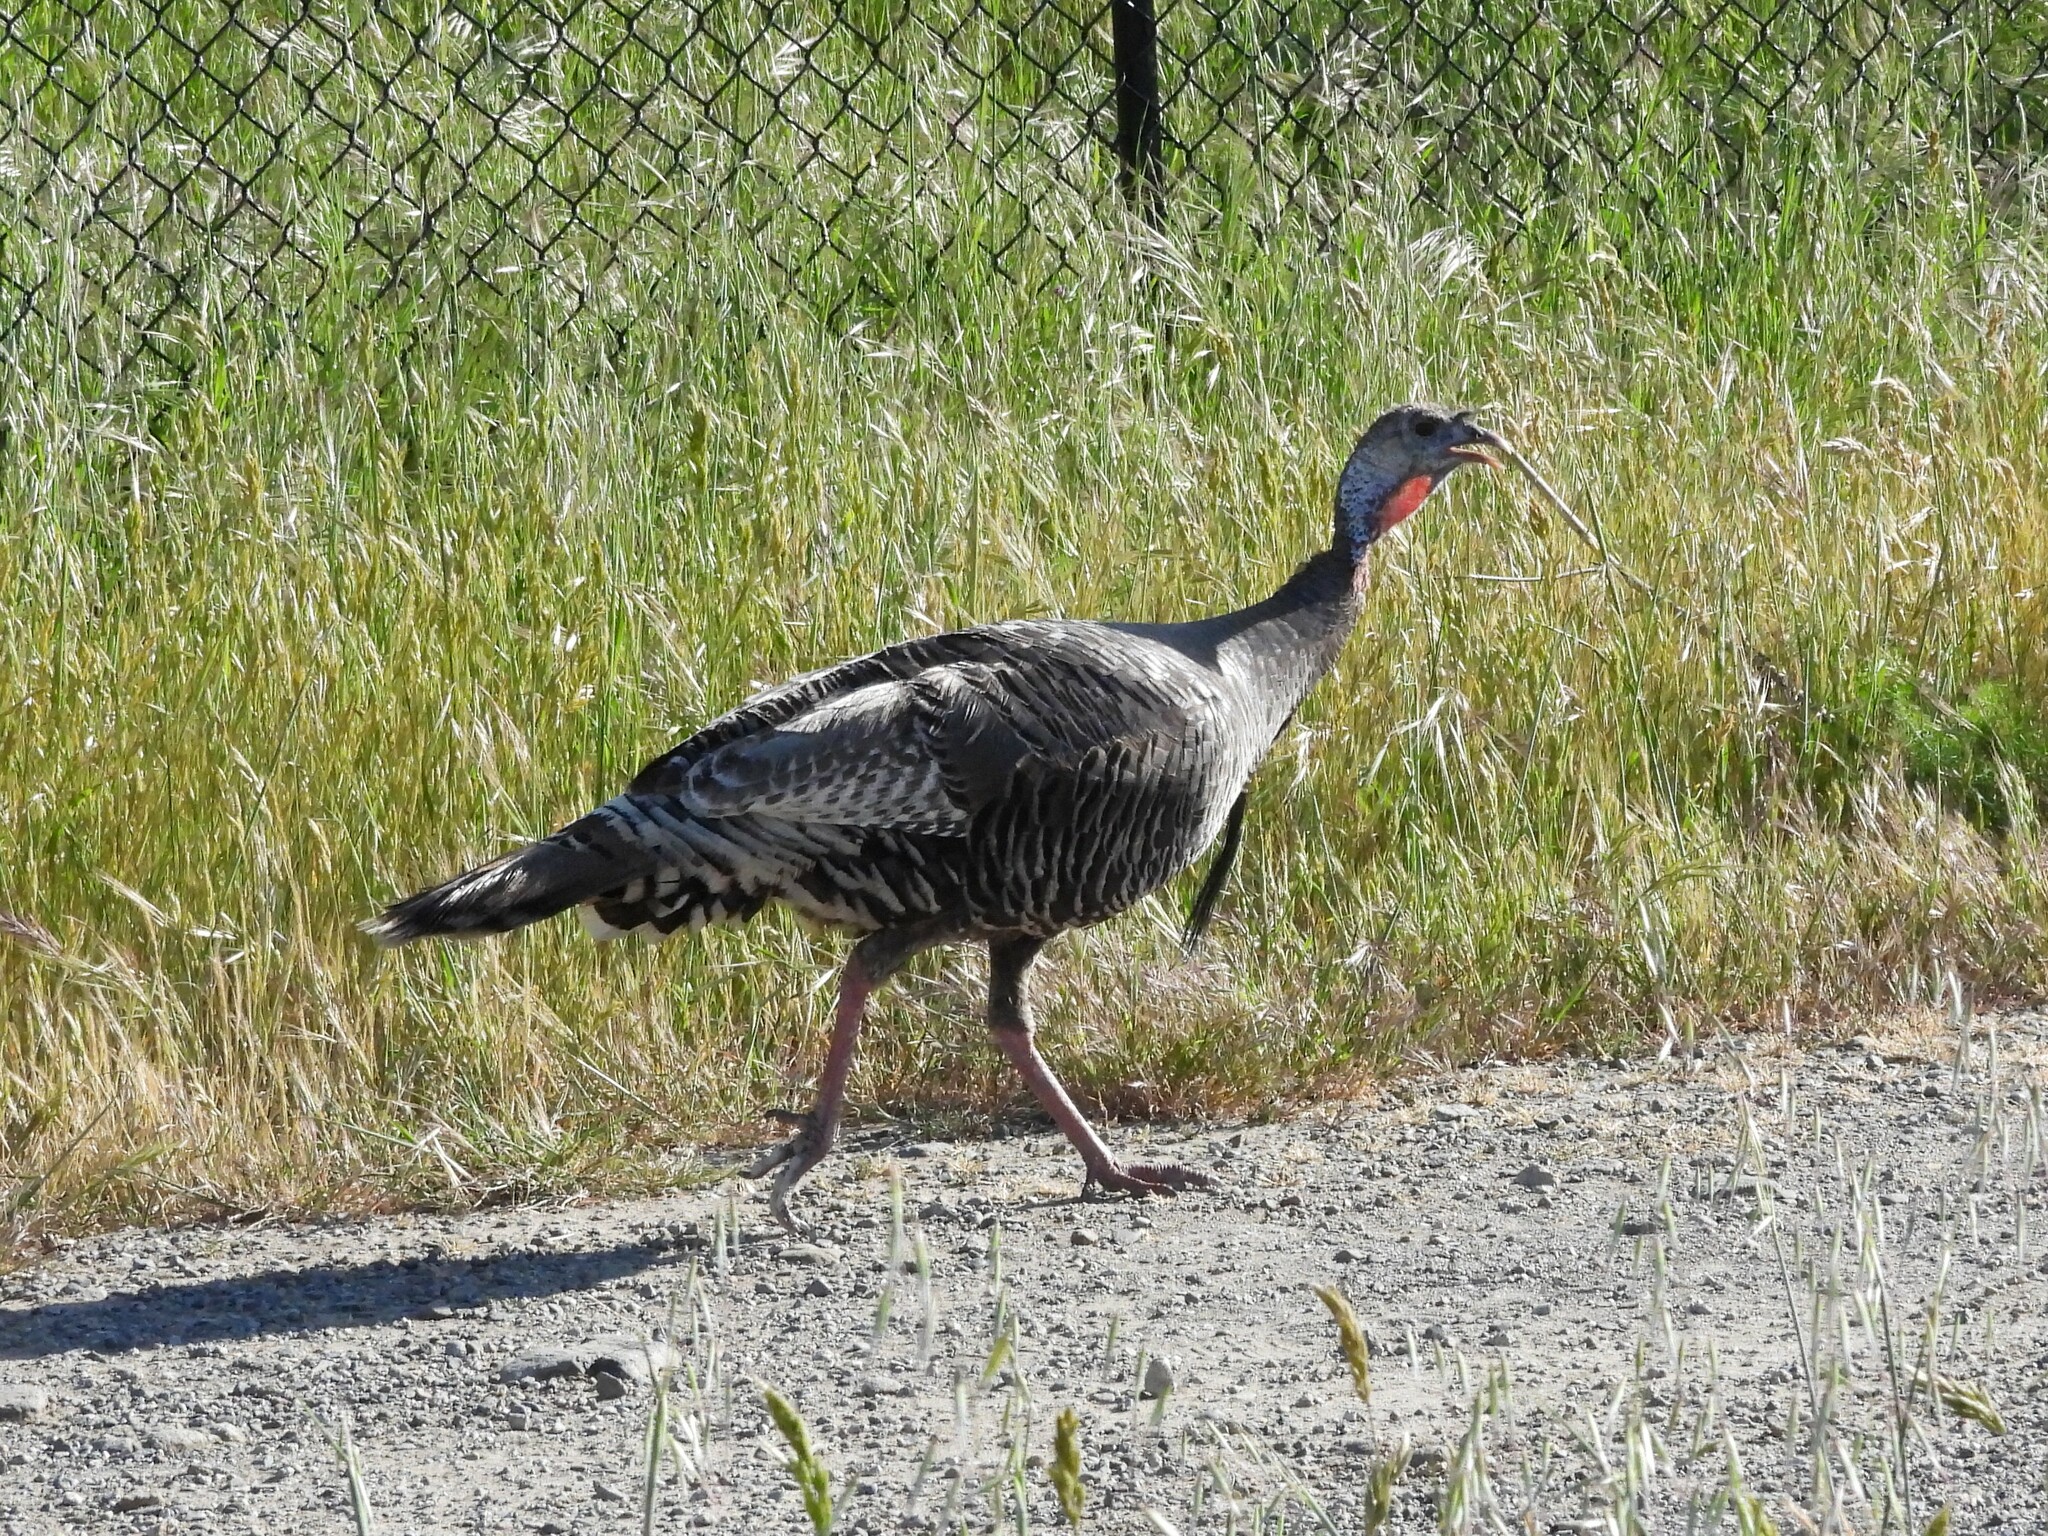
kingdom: Animalia
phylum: Chordata
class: Aves
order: Galliformes
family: Phasianidae
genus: Meleagris
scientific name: Meleagris gallopavo
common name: Wild turkey
